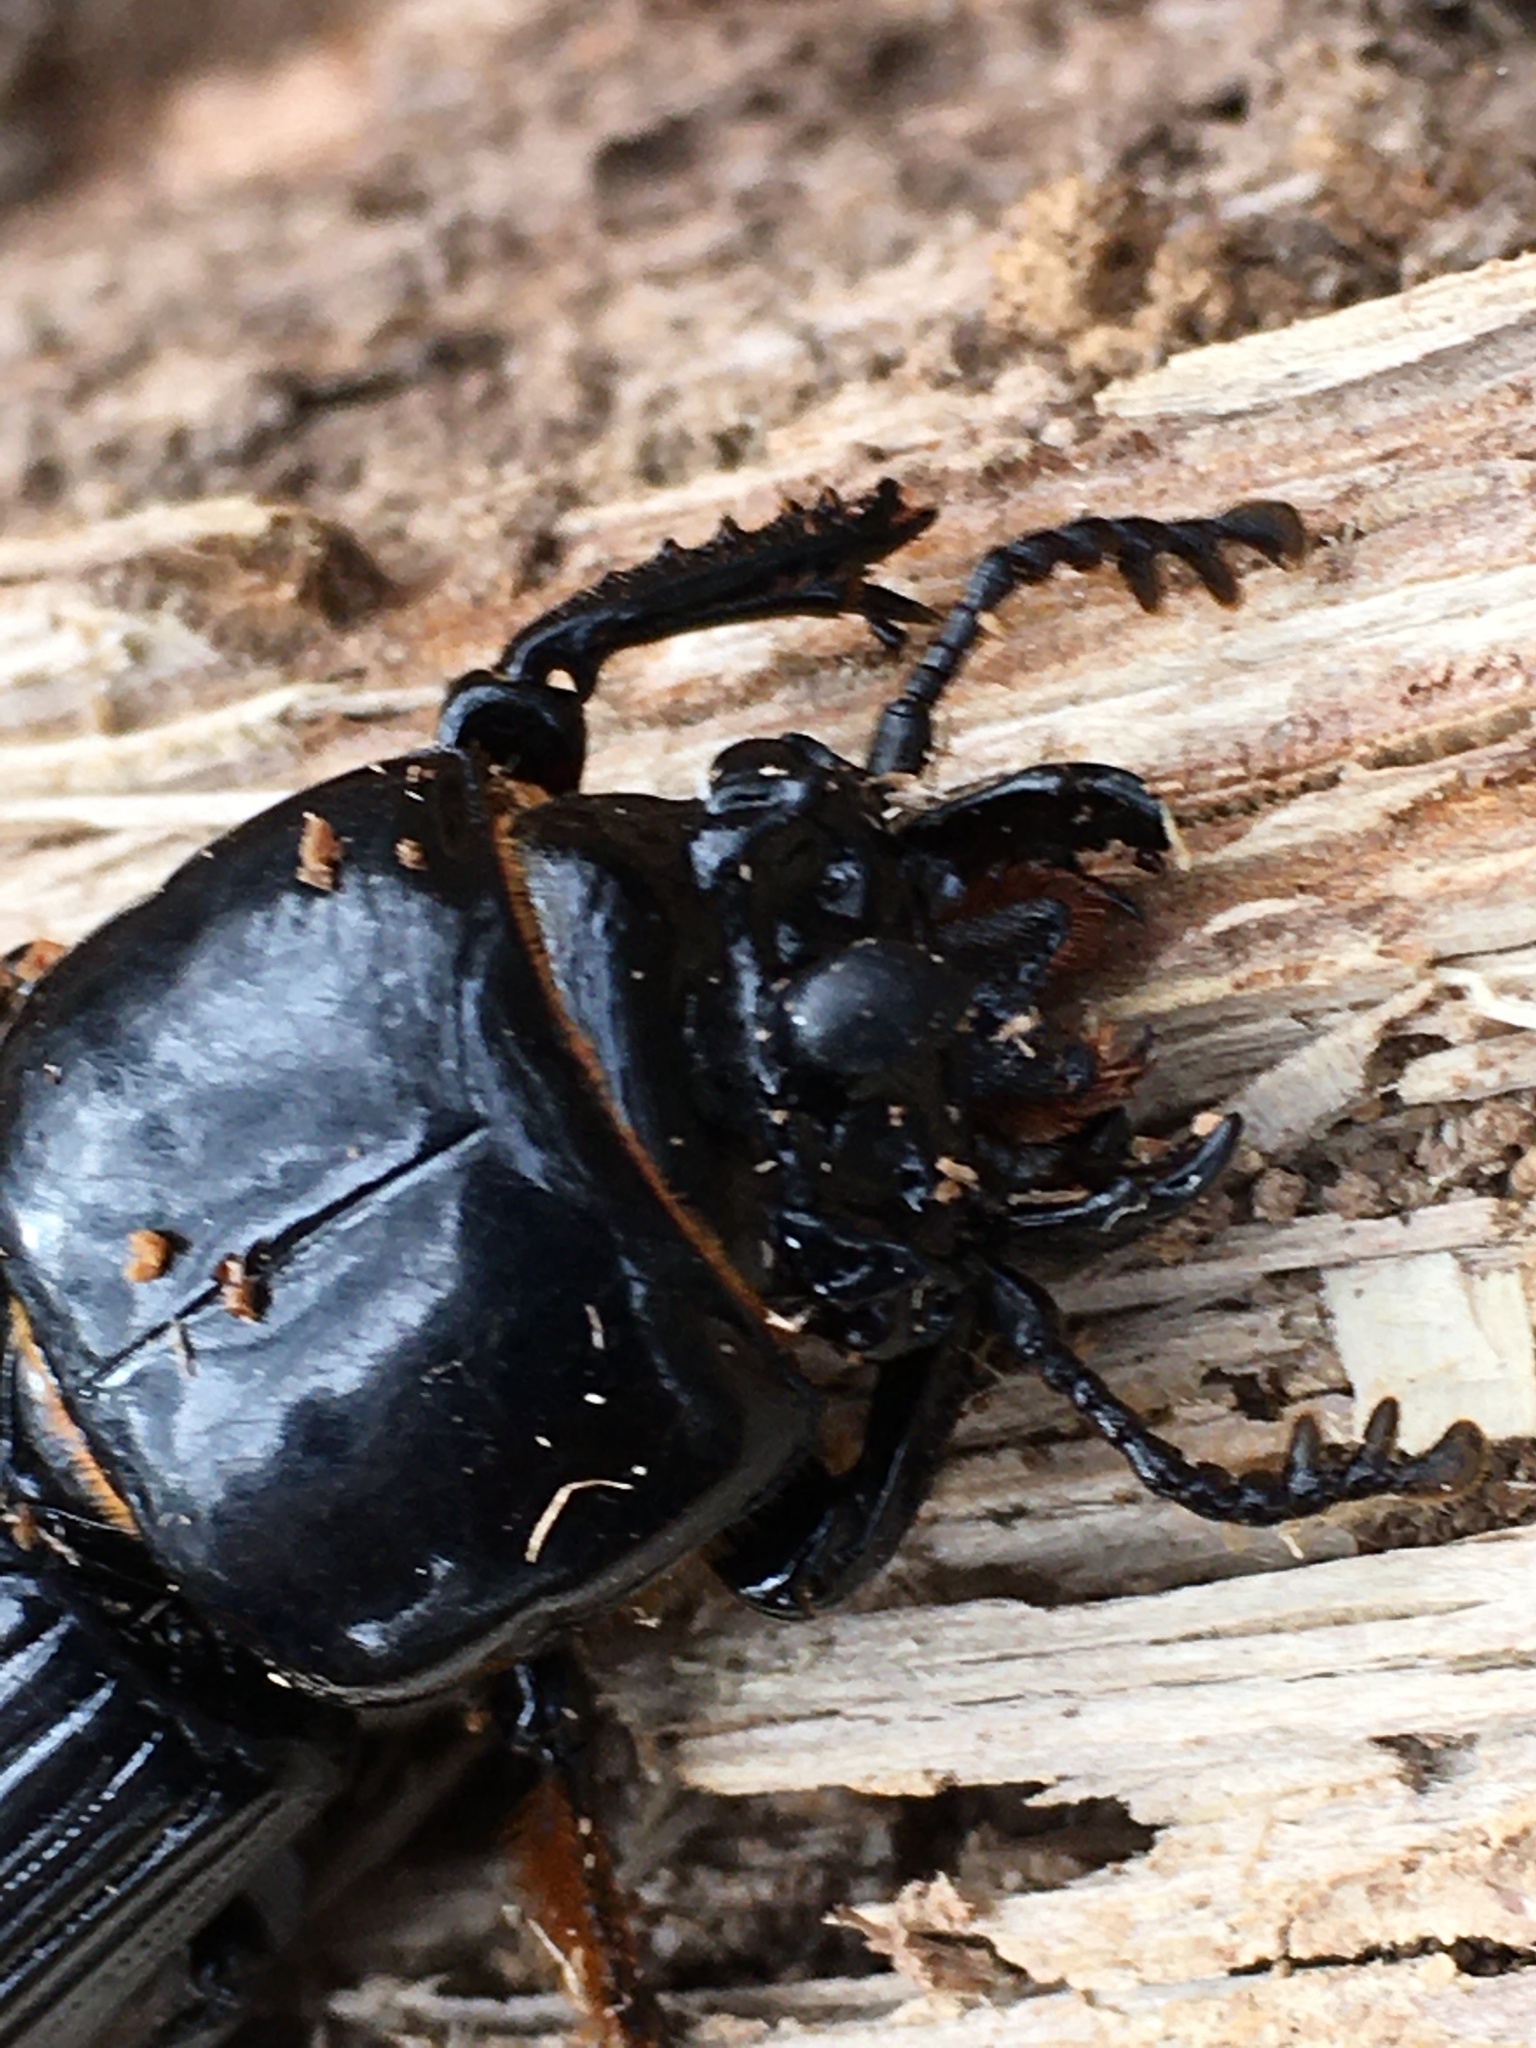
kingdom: Animalia
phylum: Arthropoda
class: Insecta
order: Coleoptera
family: Passalidae
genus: Odontotaenius
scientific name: Odontotaenius disjunctus
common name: Patent leather beetle
